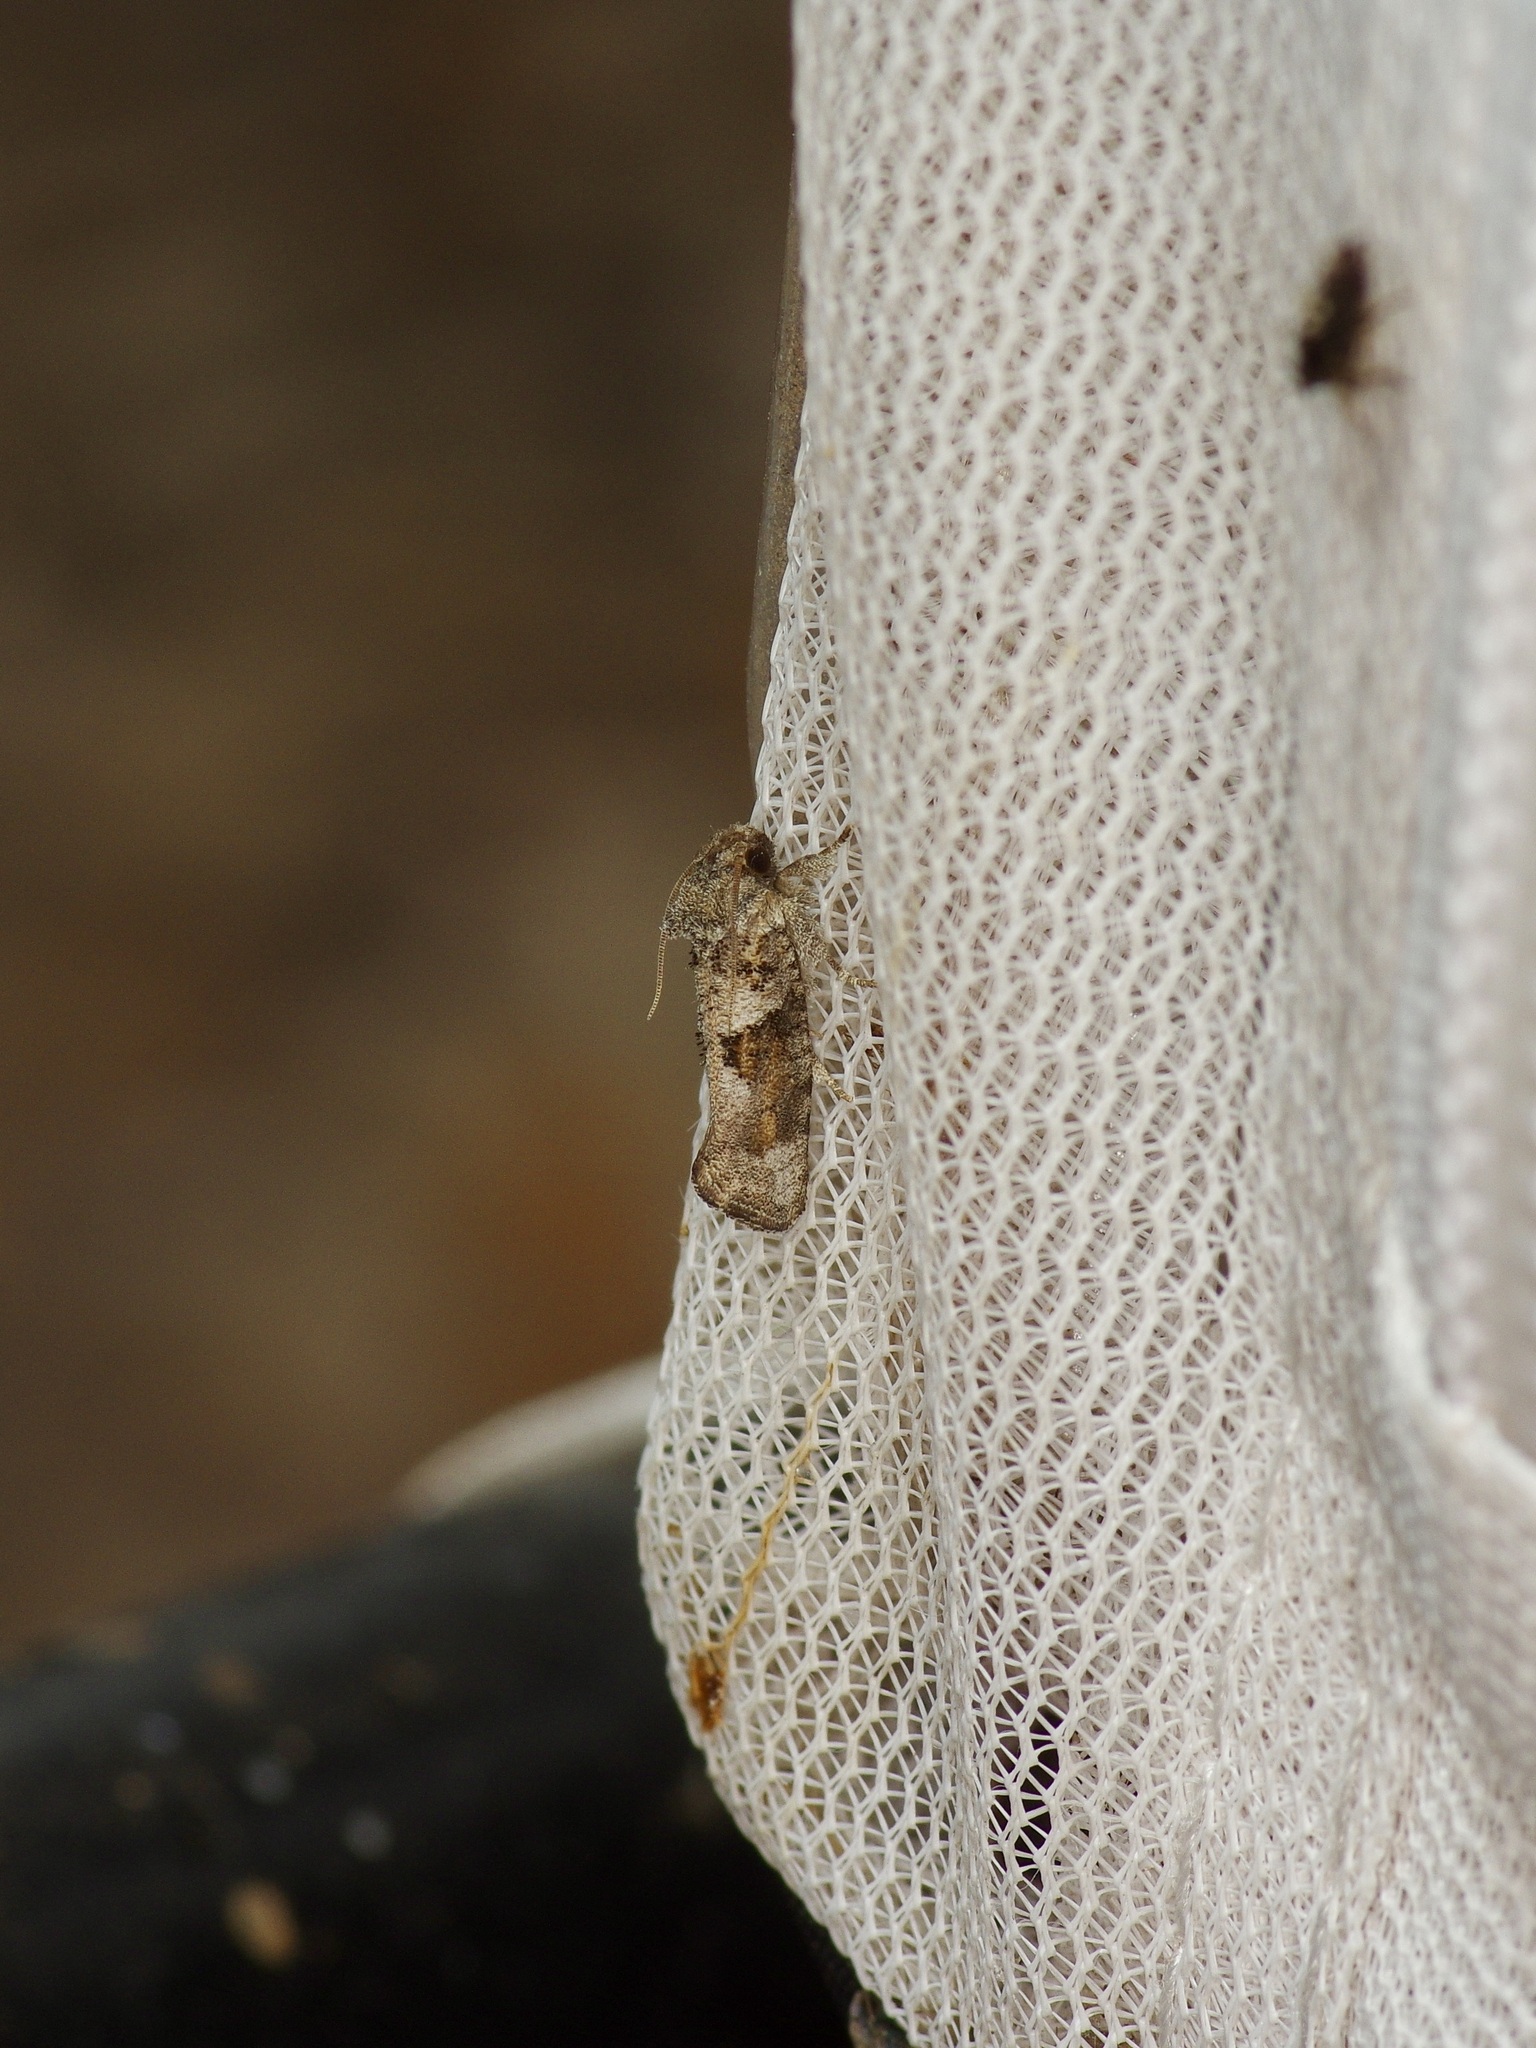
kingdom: Animalia
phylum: Arthropoda
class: Insecta
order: Lepidoptera
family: Tineidae
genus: Acrolophus
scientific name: Acrolophus piger
